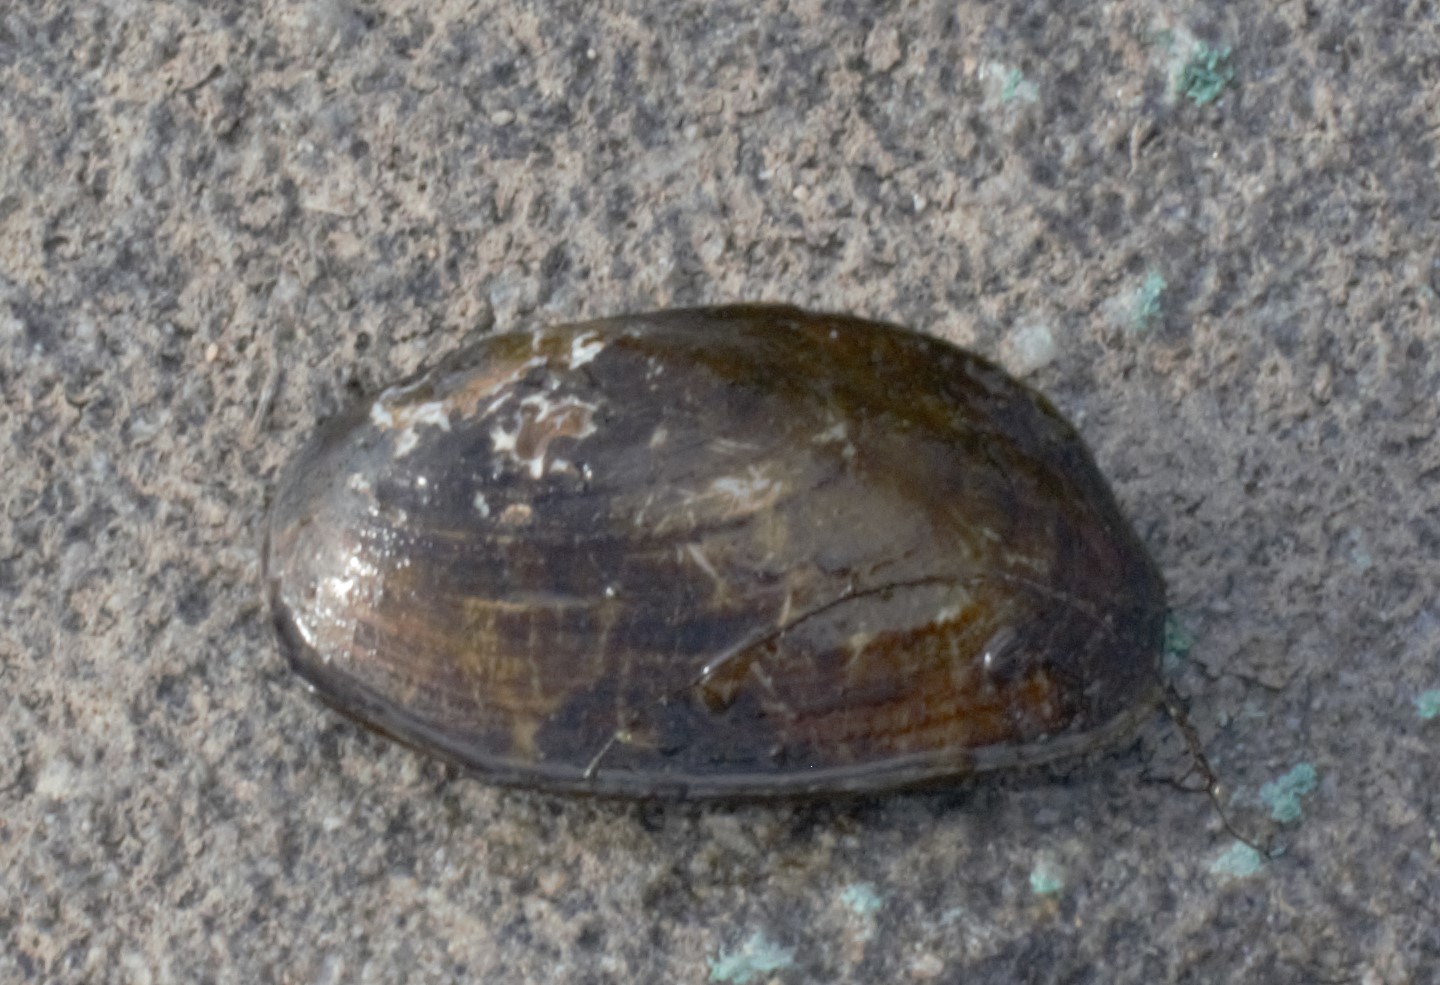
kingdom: Animalia
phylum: Mollusca
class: Bivalvia
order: Unionida
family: Unionidae
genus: Elliptio
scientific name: Elliptio complanata
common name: Eastern elliptio
